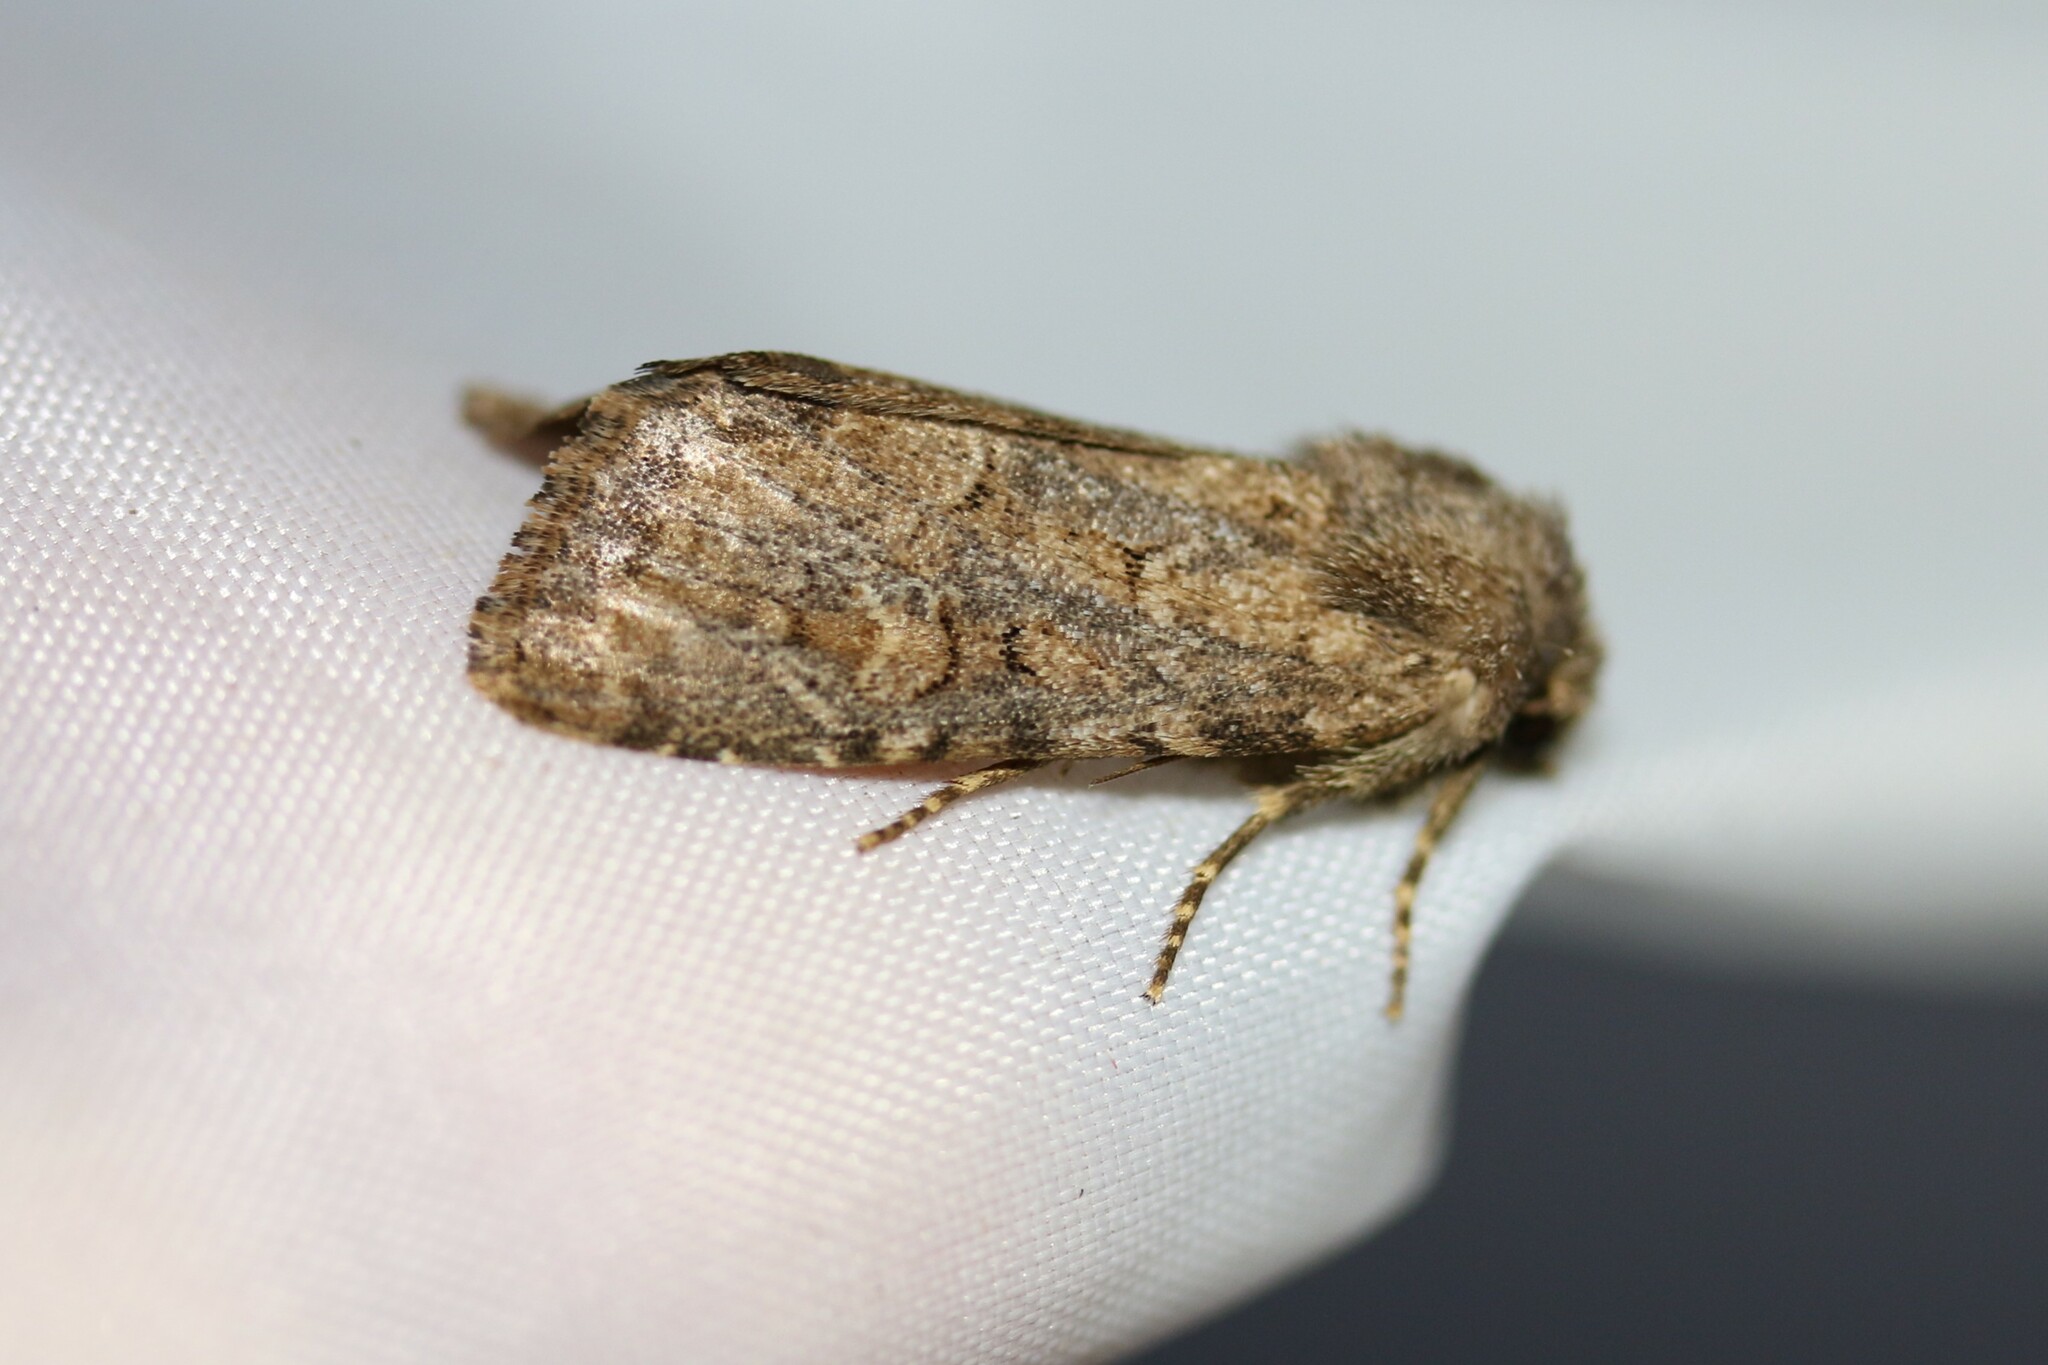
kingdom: Animalia
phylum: Arthropoda
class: Insecta
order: Lepidoptera
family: Noctuidae
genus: Luperina
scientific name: Luperina testacea
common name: Flounced rustic
